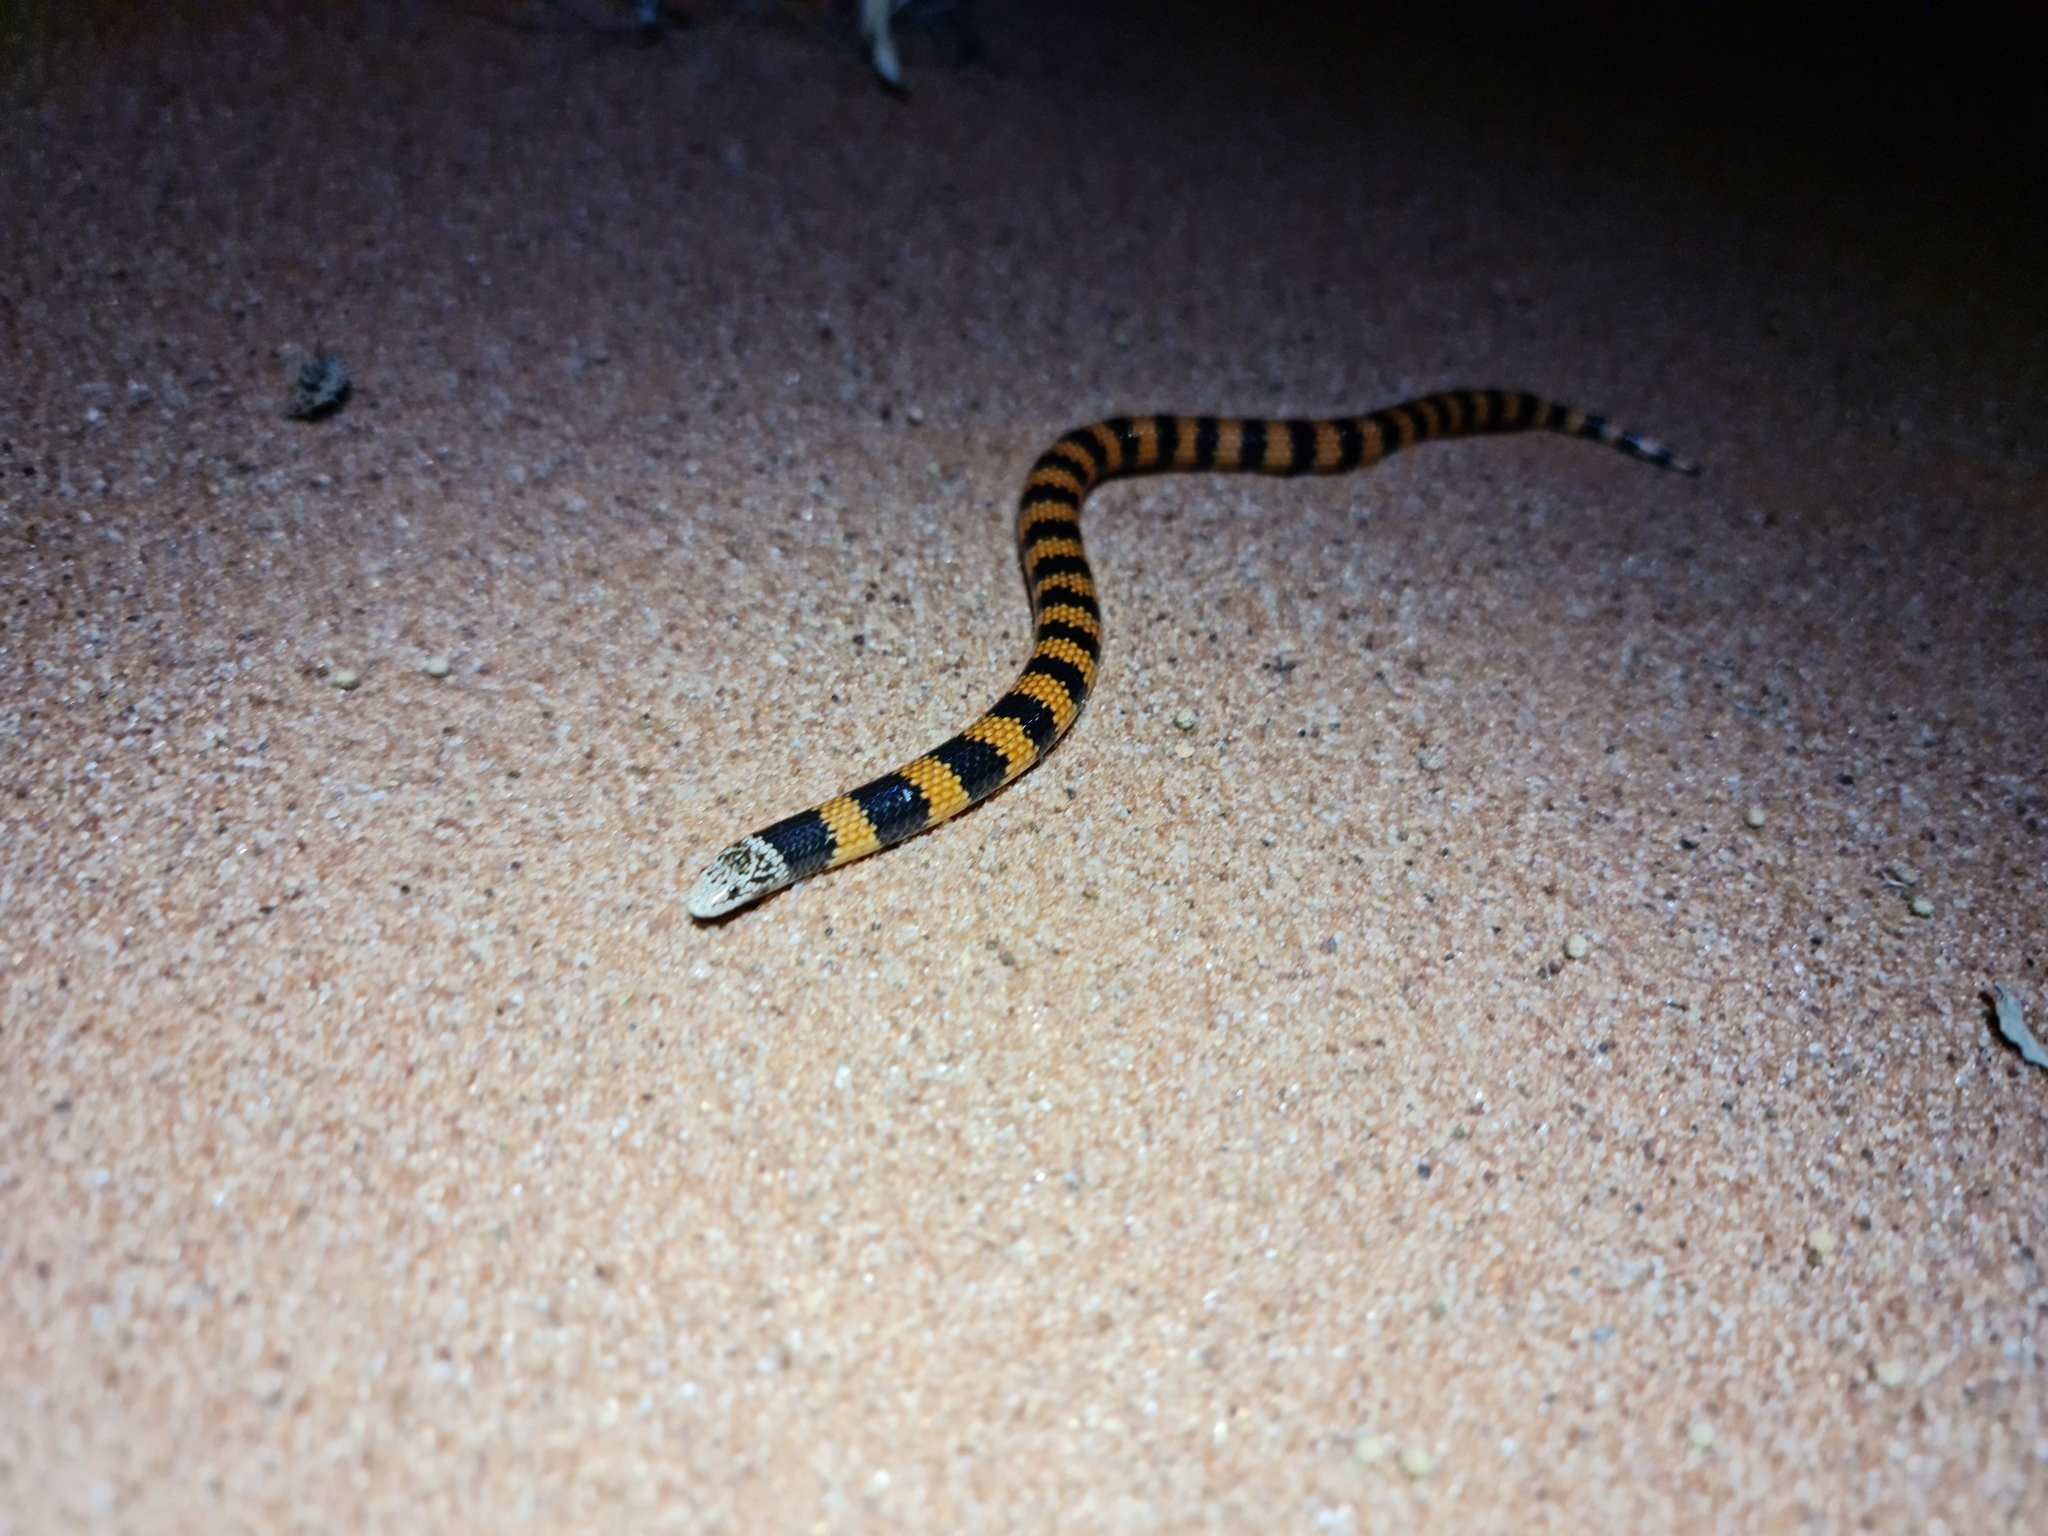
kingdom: Animalia
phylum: Chordata
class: Squamata
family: Elapidae
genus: Simoselaps
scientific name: Simoselaps bertholdi
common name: Desert banded snake
